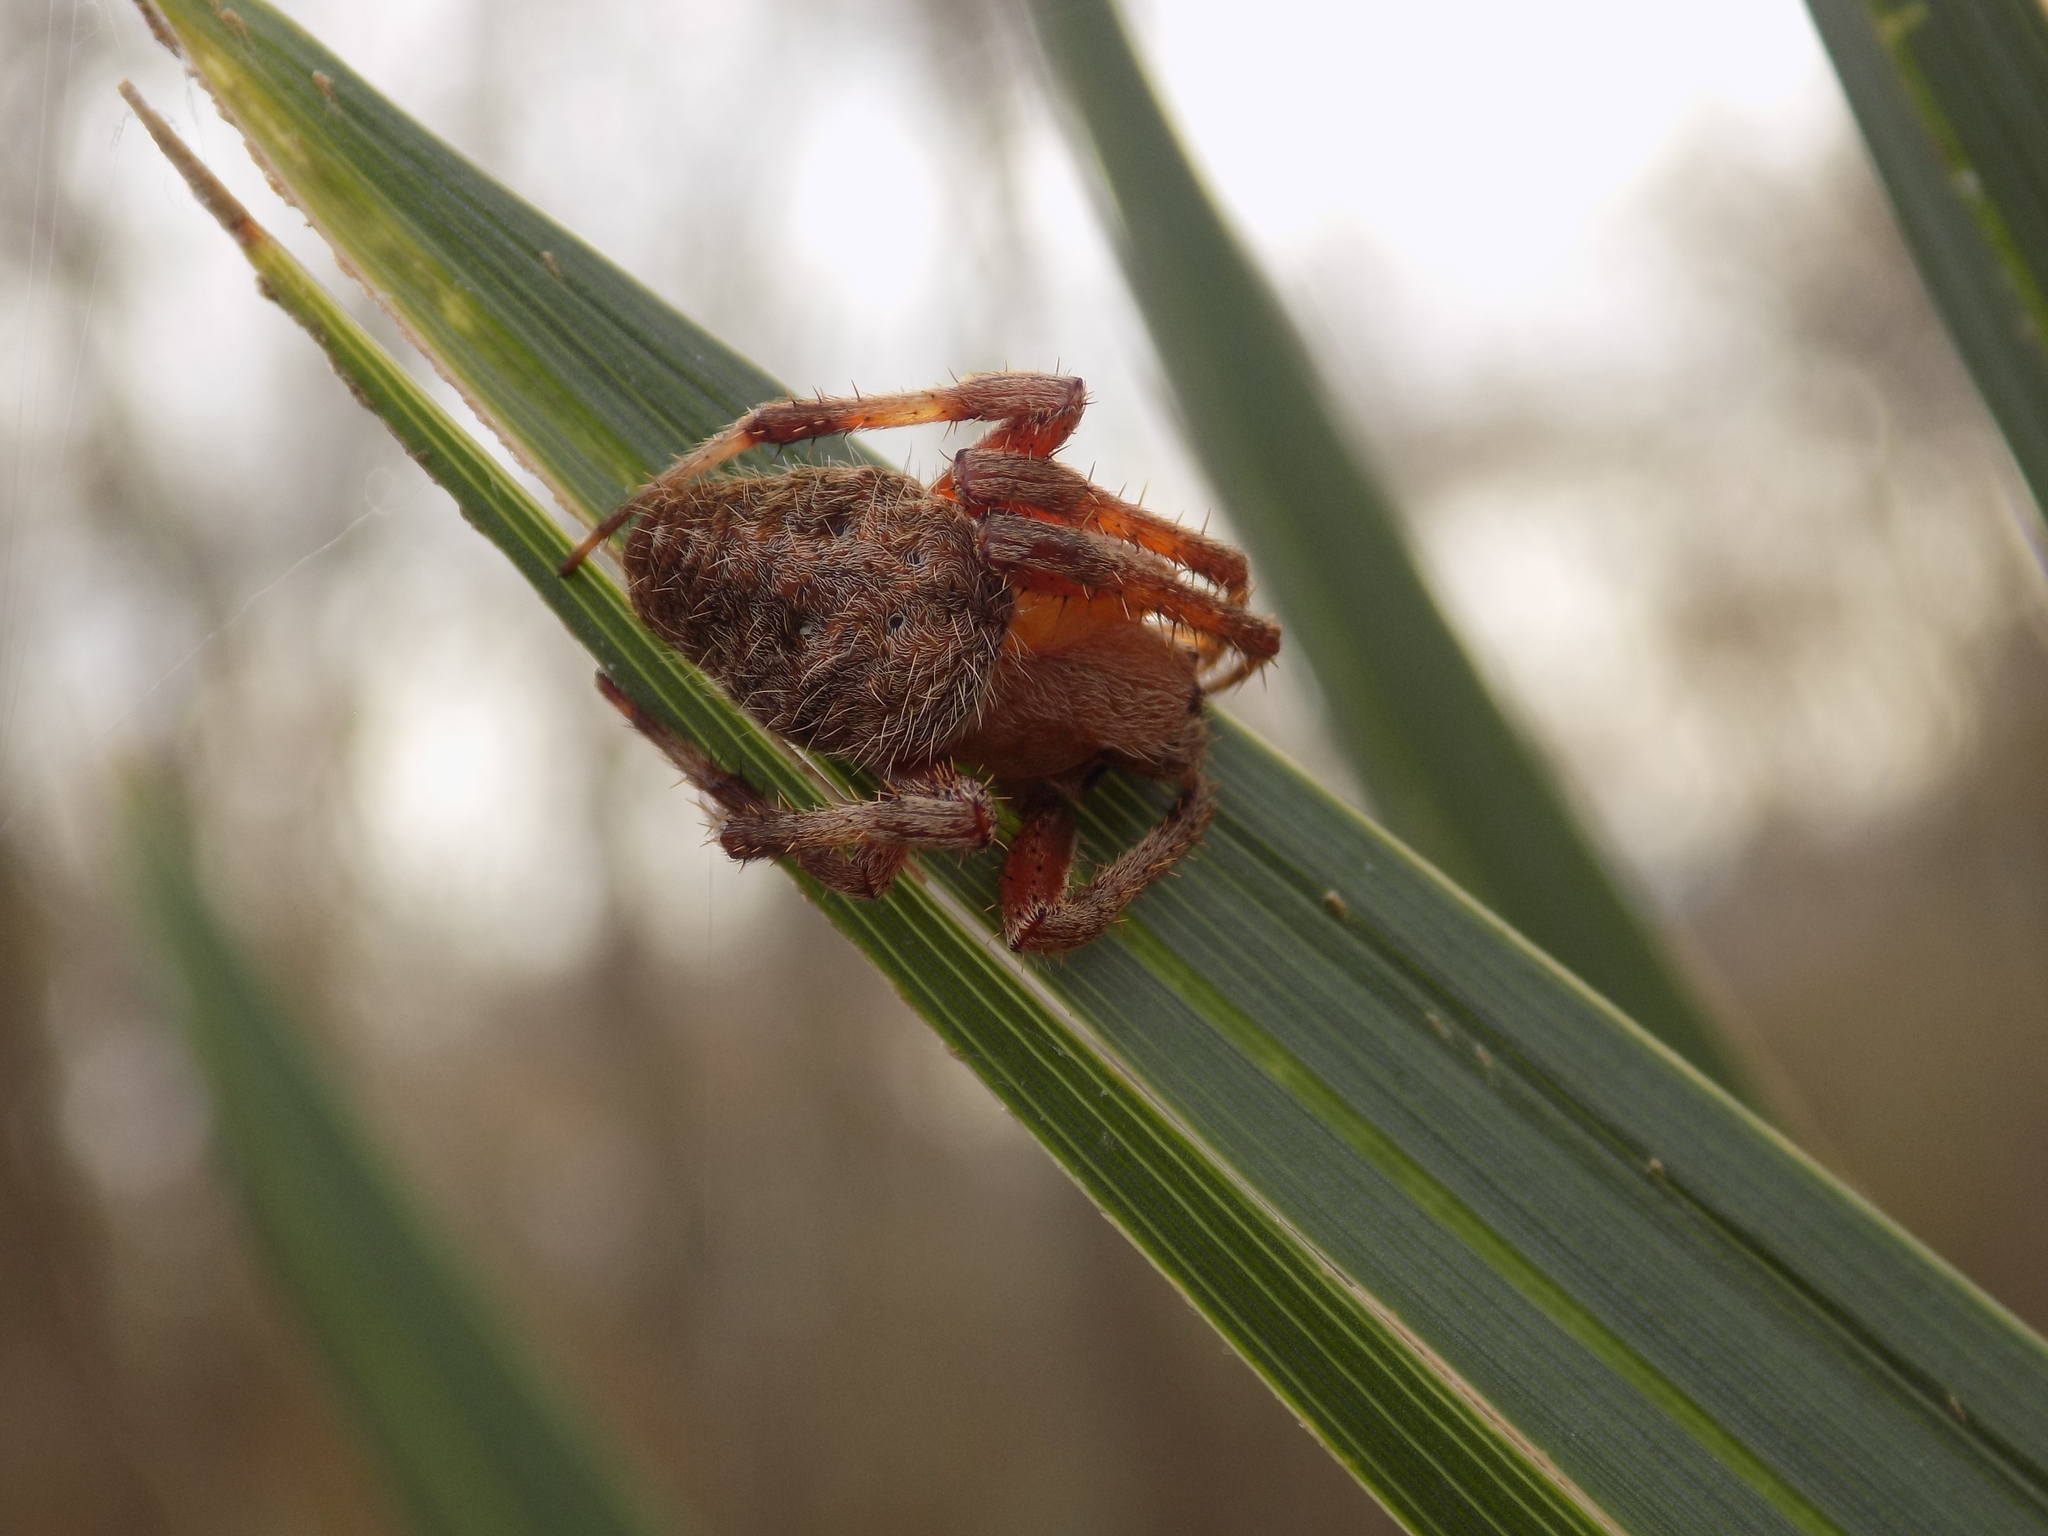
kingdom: Animalia
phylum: Arthropoda
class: Arachnida
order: Araneae
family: Araneidae
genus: Neoscona
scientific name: Neoscona crucifera
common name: Spotted orbweaver
